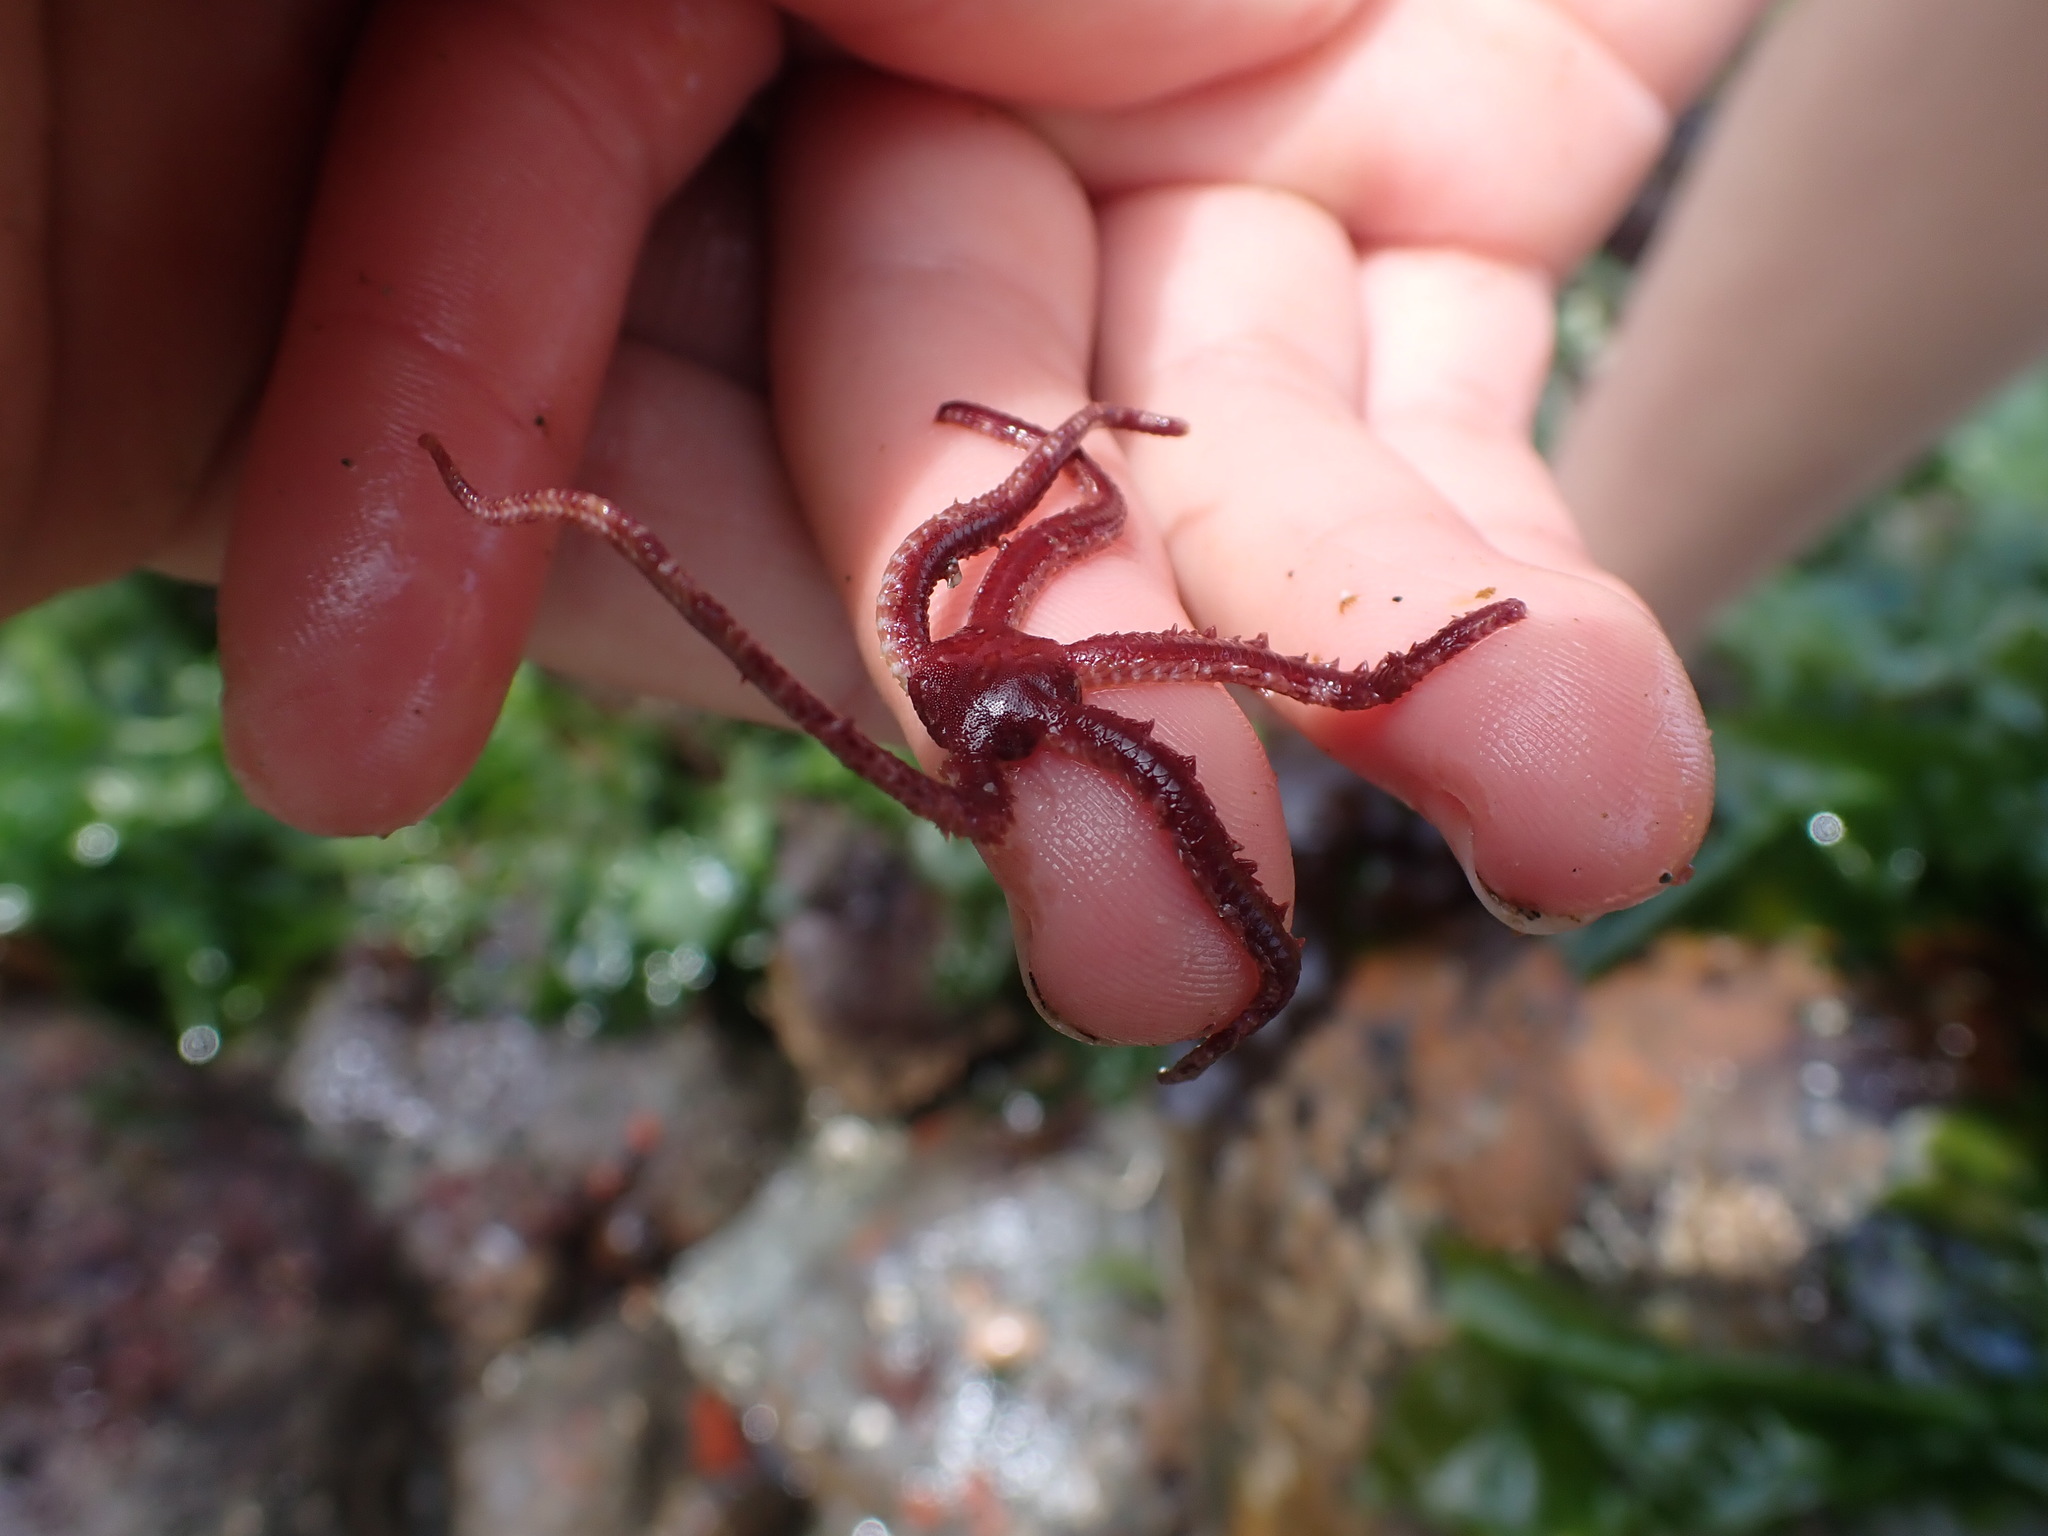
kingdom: Animalia
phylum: Echinodermata
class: Ophiuroidea
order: Amphilepidida
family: Ophiopholidae
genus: Ophiopholis
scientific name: Ophiopholis aculeata
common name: Crevice brittlestar
